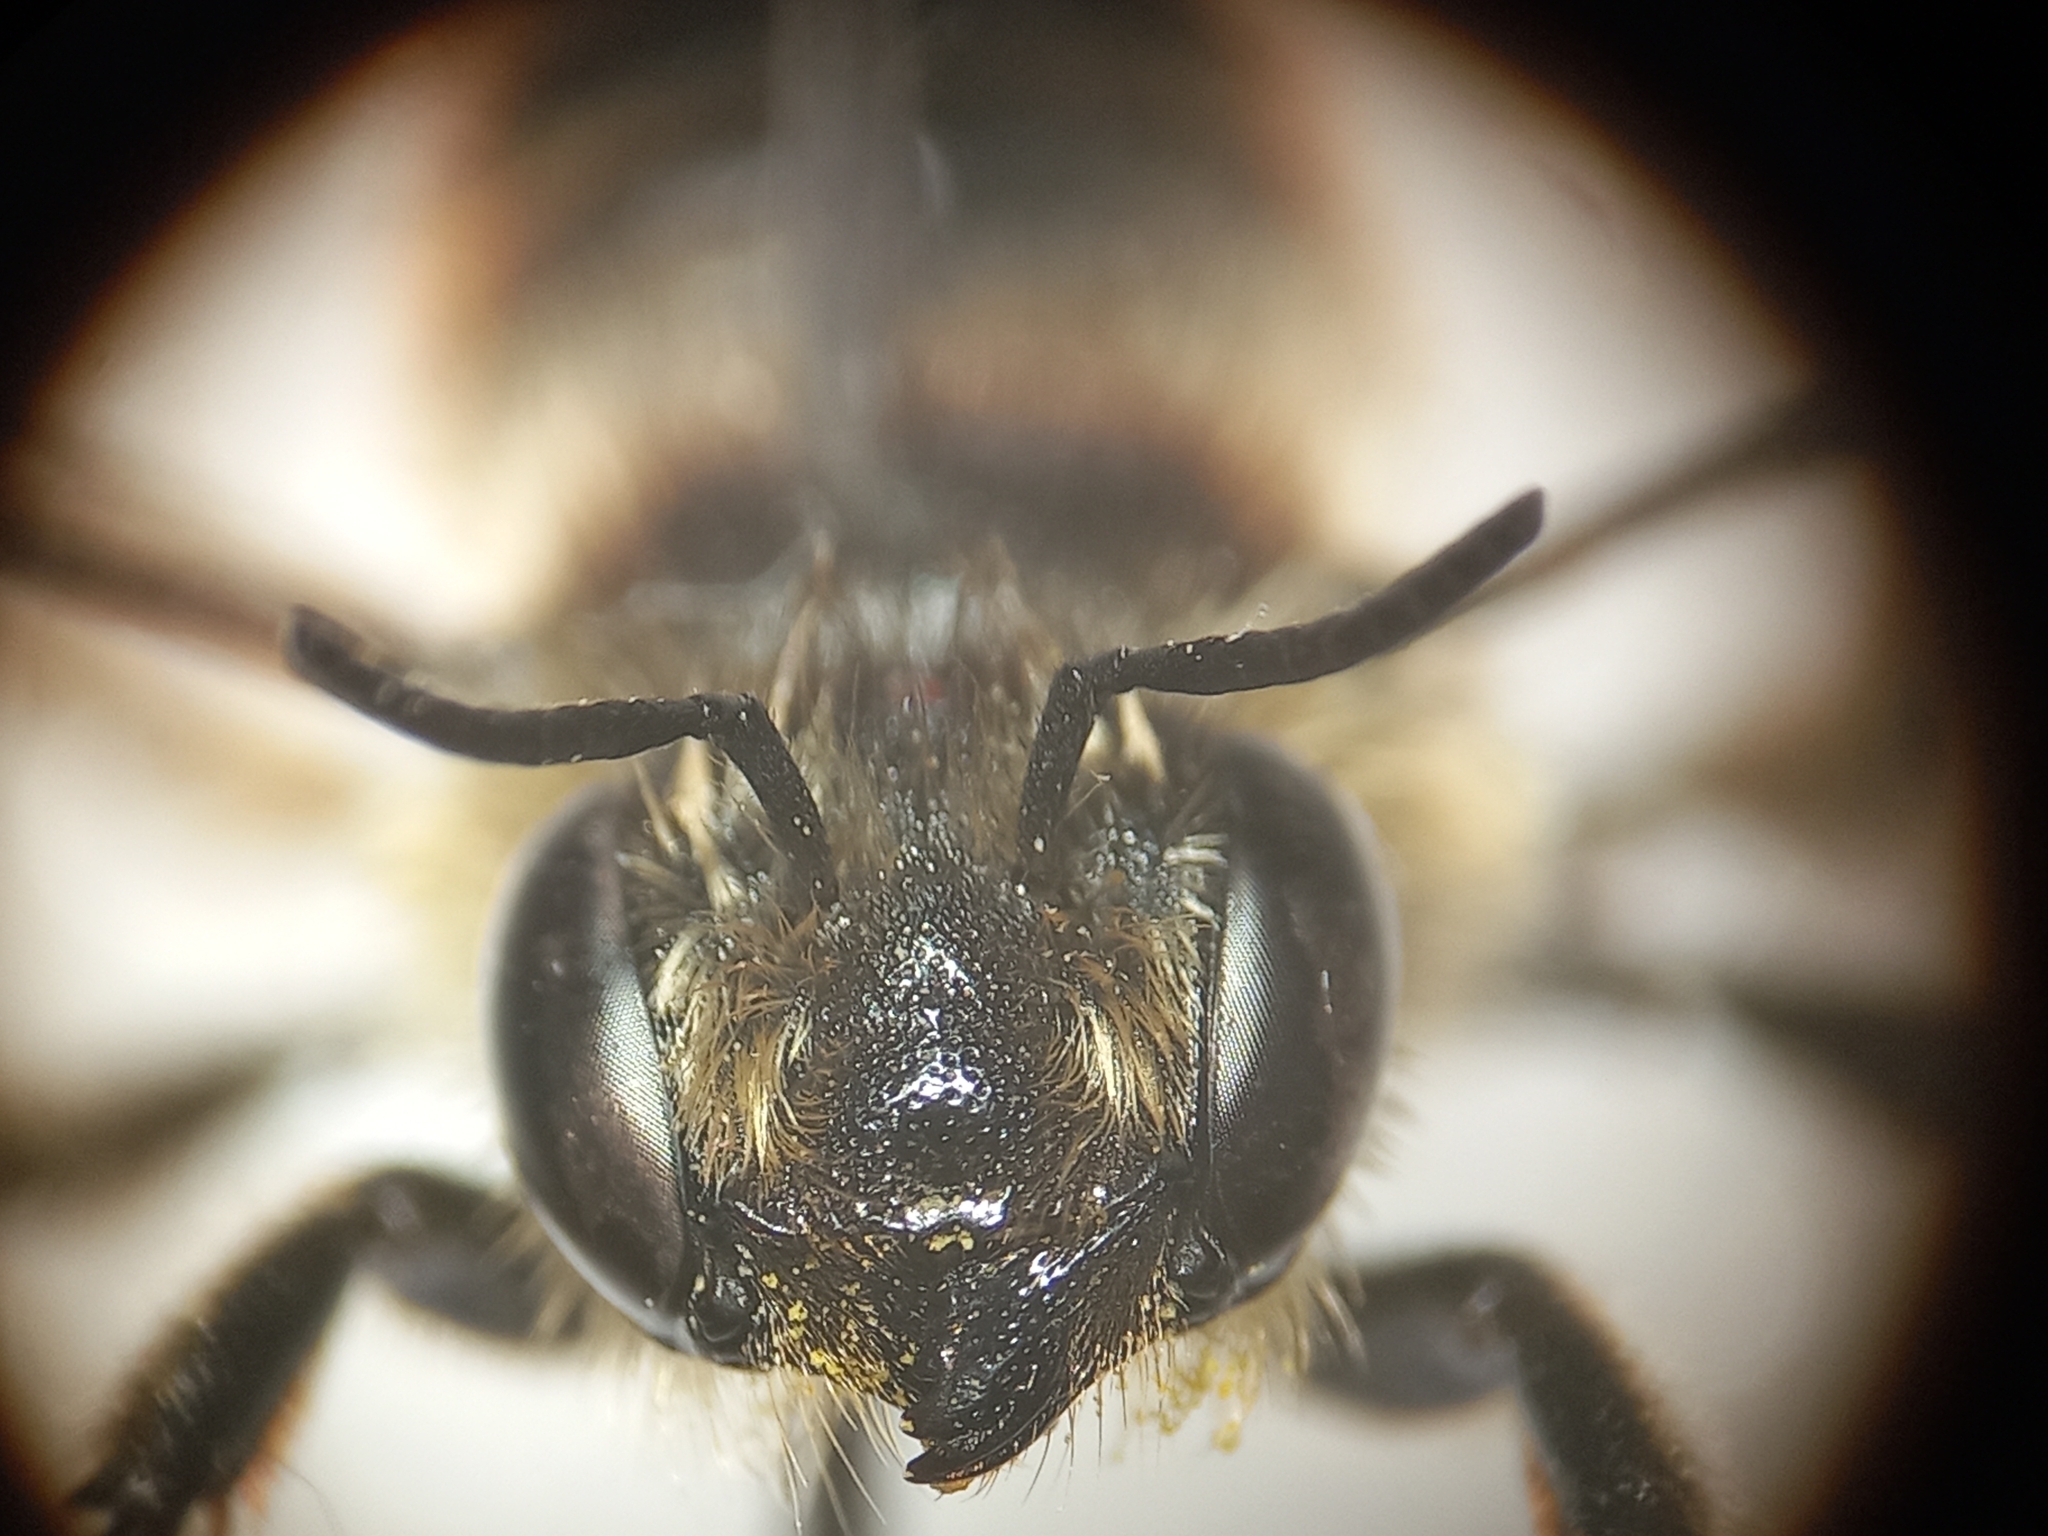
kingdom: Animalia
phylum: Arthropoda
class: Insecta
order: Hymenoptera
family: Megachilidae
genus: Megachile
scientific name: Megachile centuncularis
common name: Patchwork leafcutter bee
